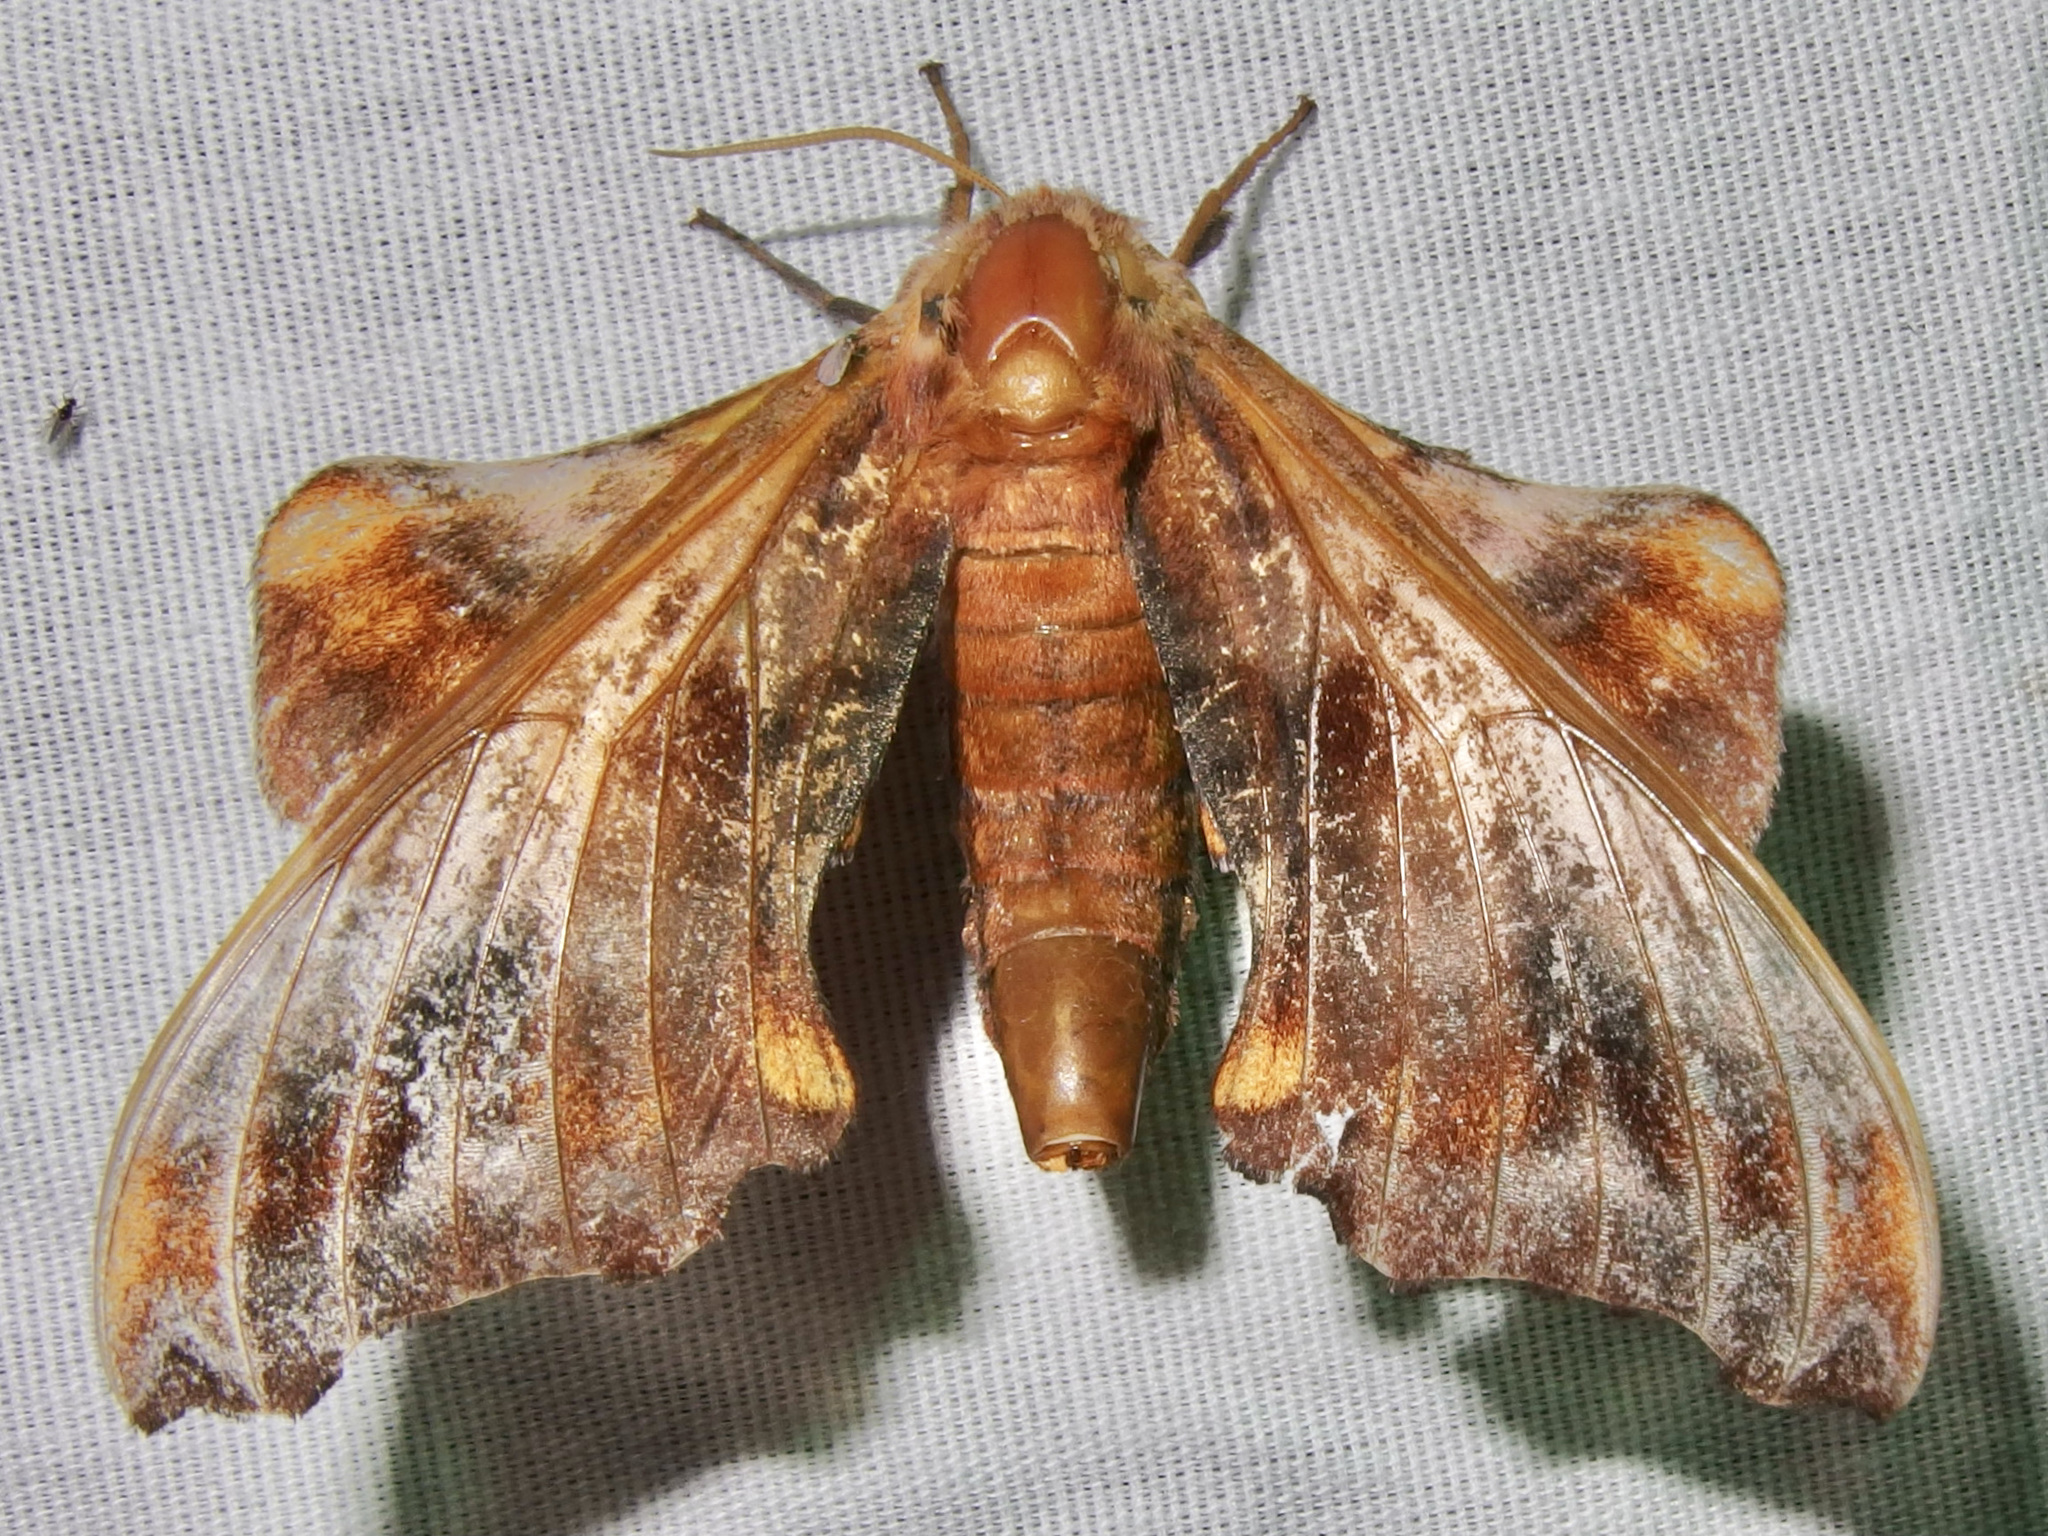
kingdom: Animalia
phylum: Arthropoda
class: Insecta
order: Lepidoptera
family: Sphingidae
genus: Paonias
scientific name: Paonias myops
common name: Small-eyed sphinx
